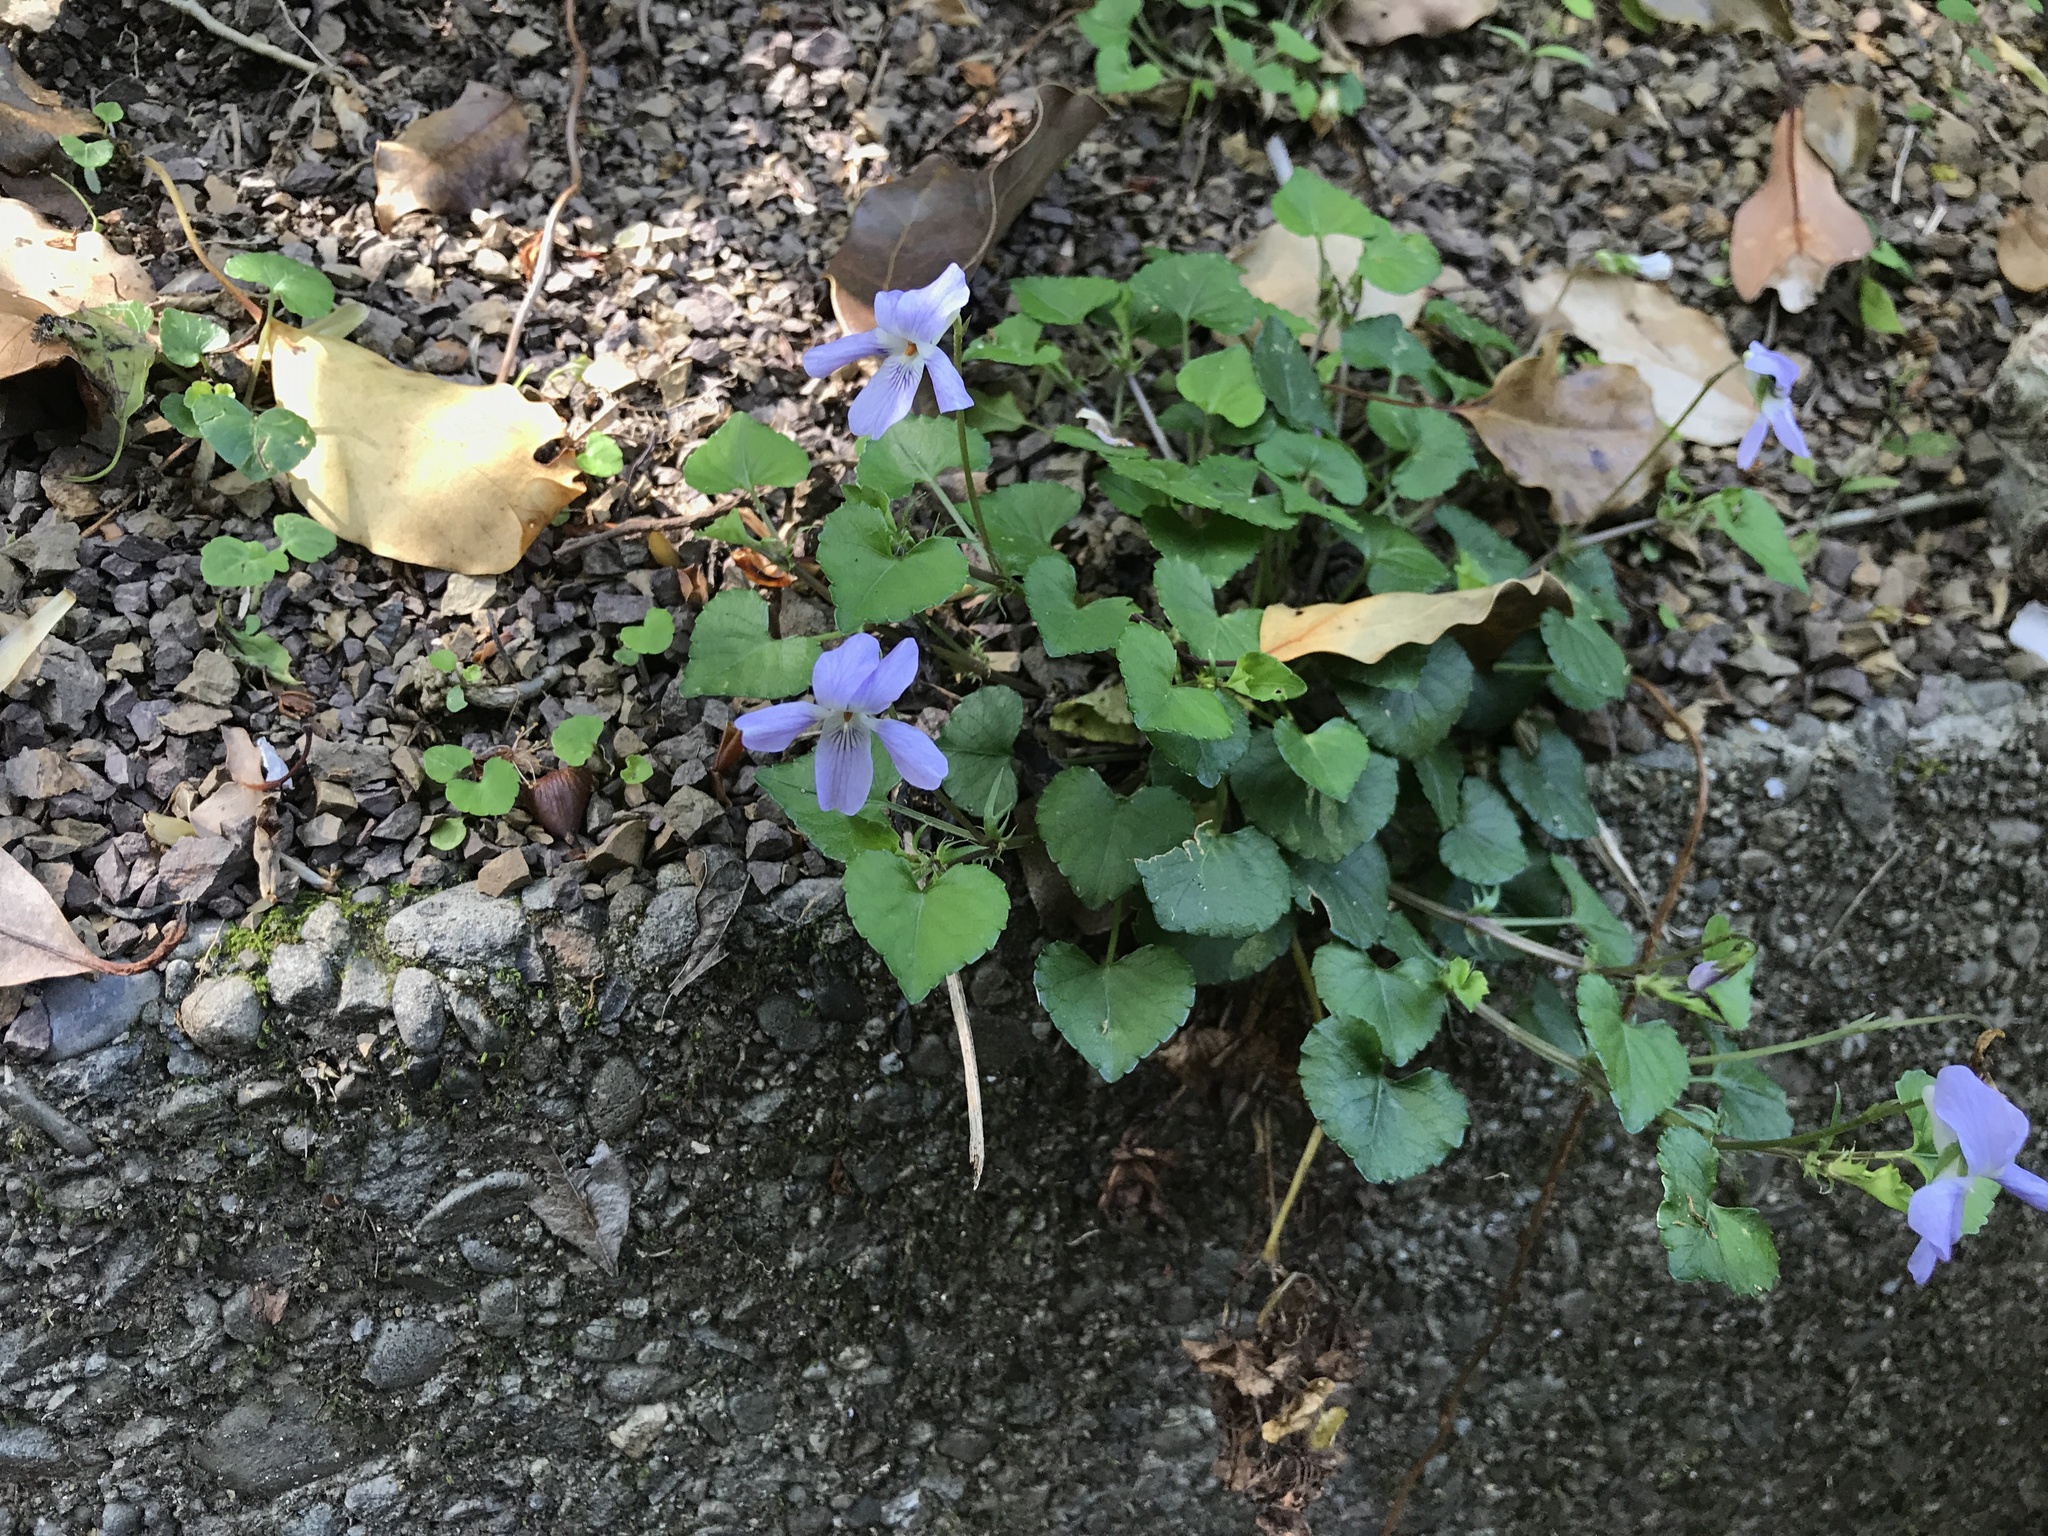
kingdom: Plantae
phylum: Tracheophyta
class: Magnoliopsida
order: Malpighiales
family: Violaceae
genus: Viola
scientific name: Viola grypoceras
